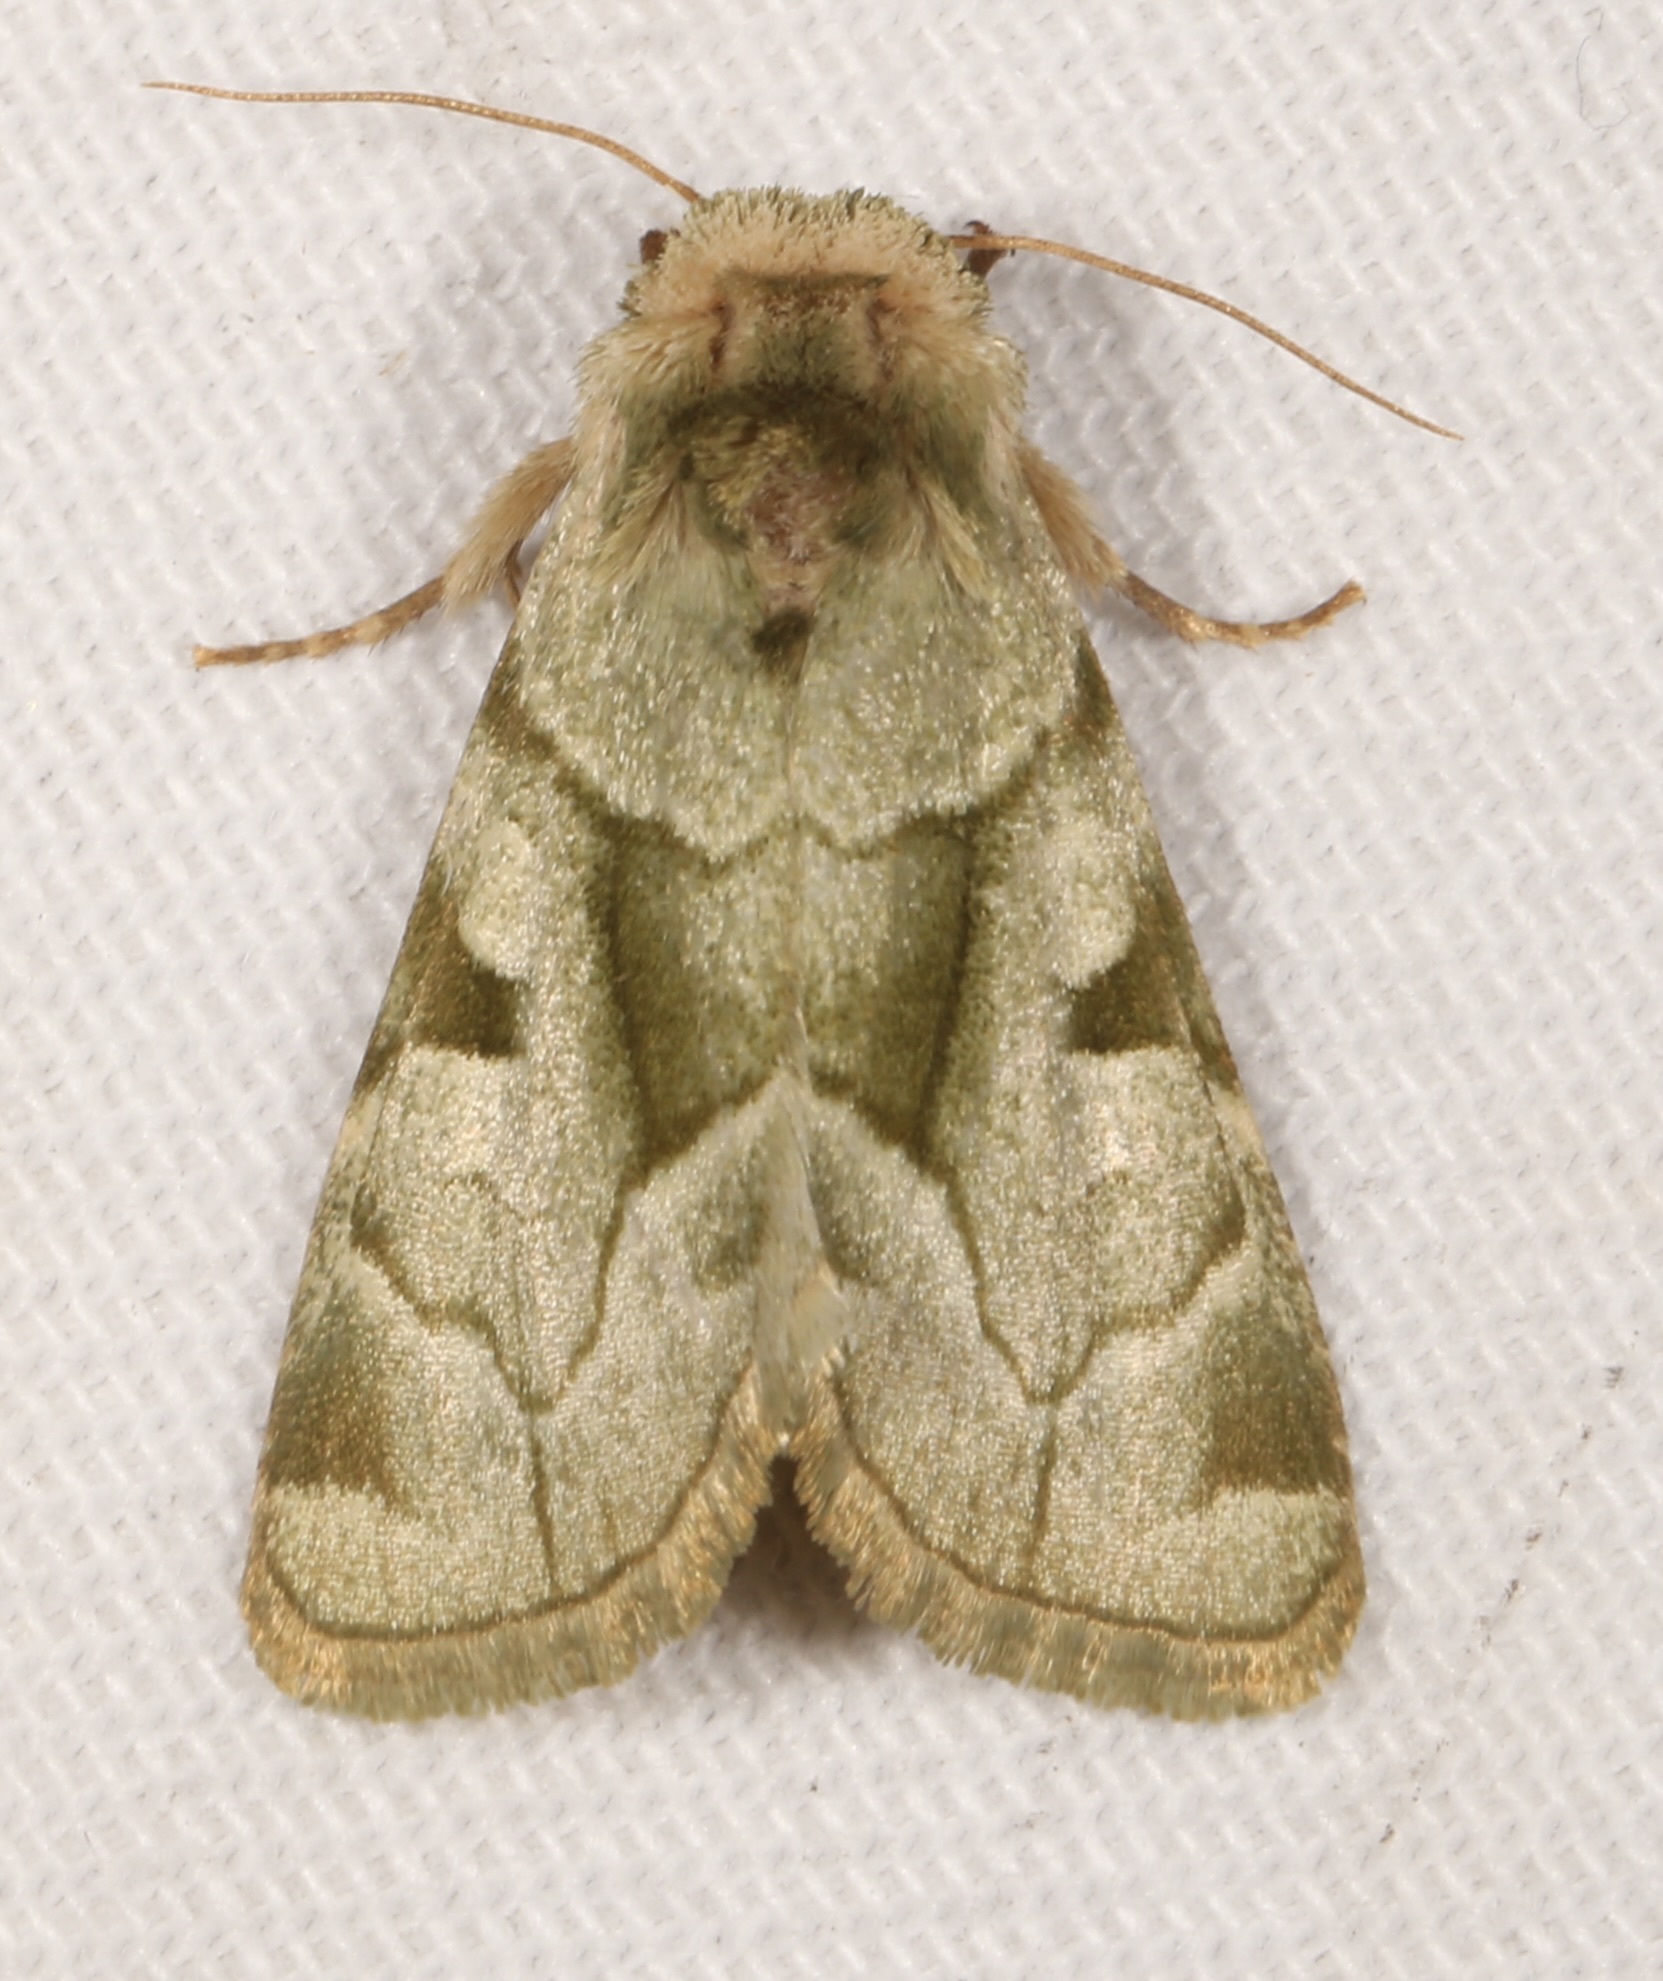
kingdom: Animalia
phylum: Arthropoda
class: Insecta
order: Lepidoptera
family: Noctuidae
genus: Oslaria
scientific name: Oslaria viridifera
